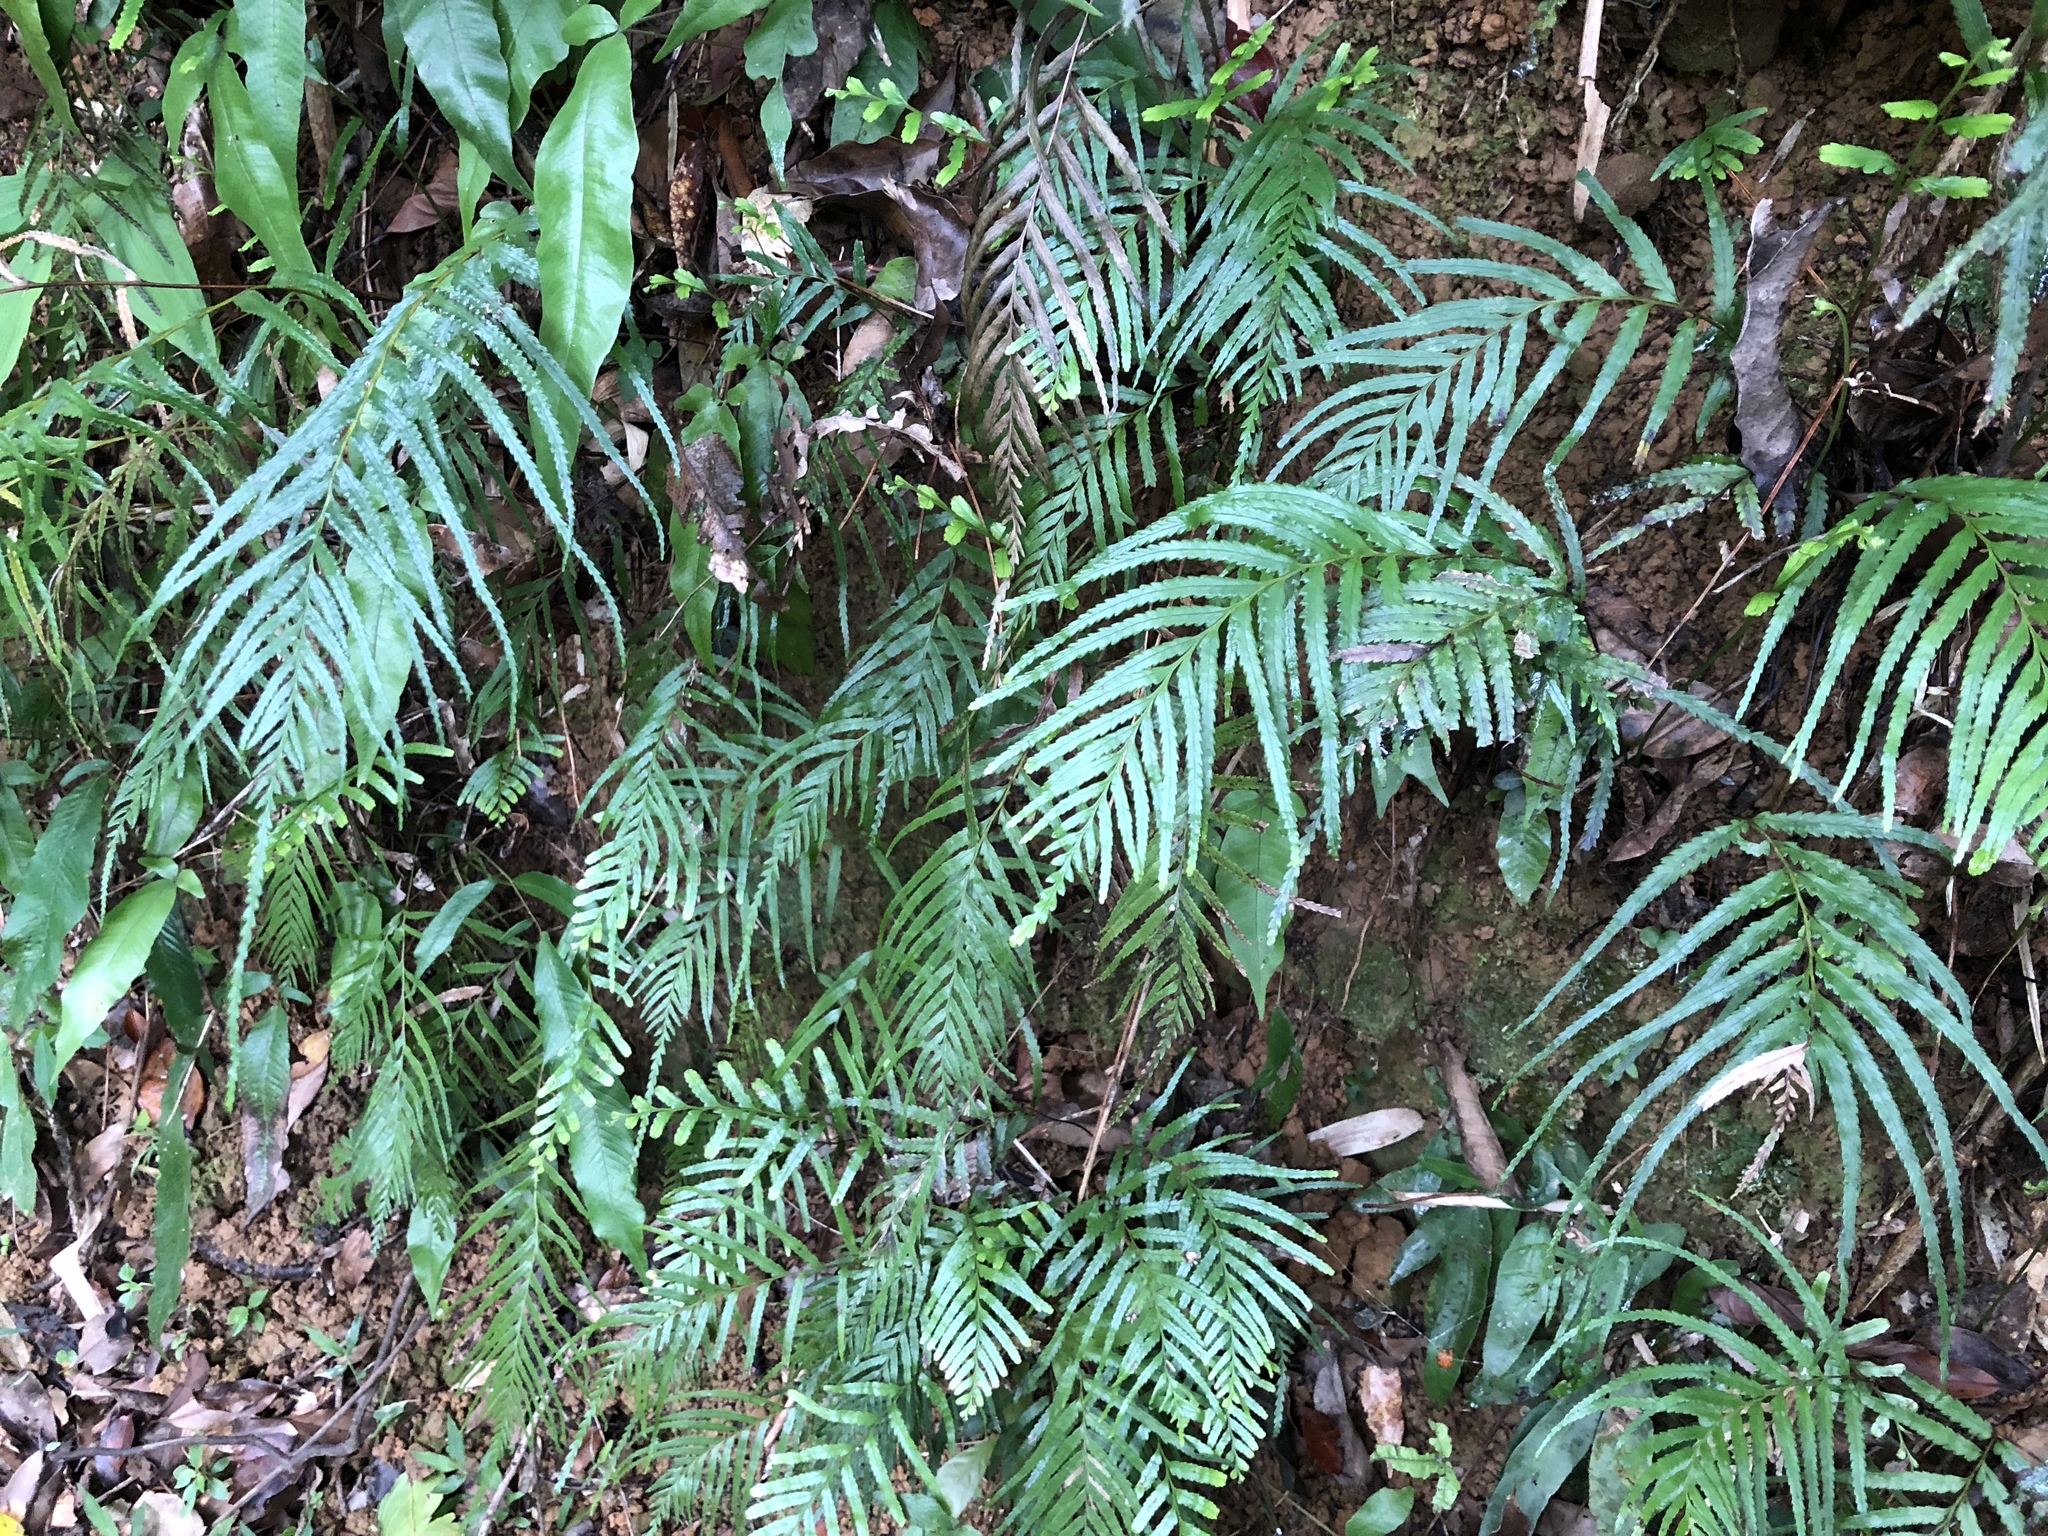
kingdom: Plantae
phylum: Tracheophyta
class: Polypodiopsida
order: Polypodiales
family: Lindsaeaceae
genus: Tapeinidium
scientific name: Tapeinidium pinnatum
